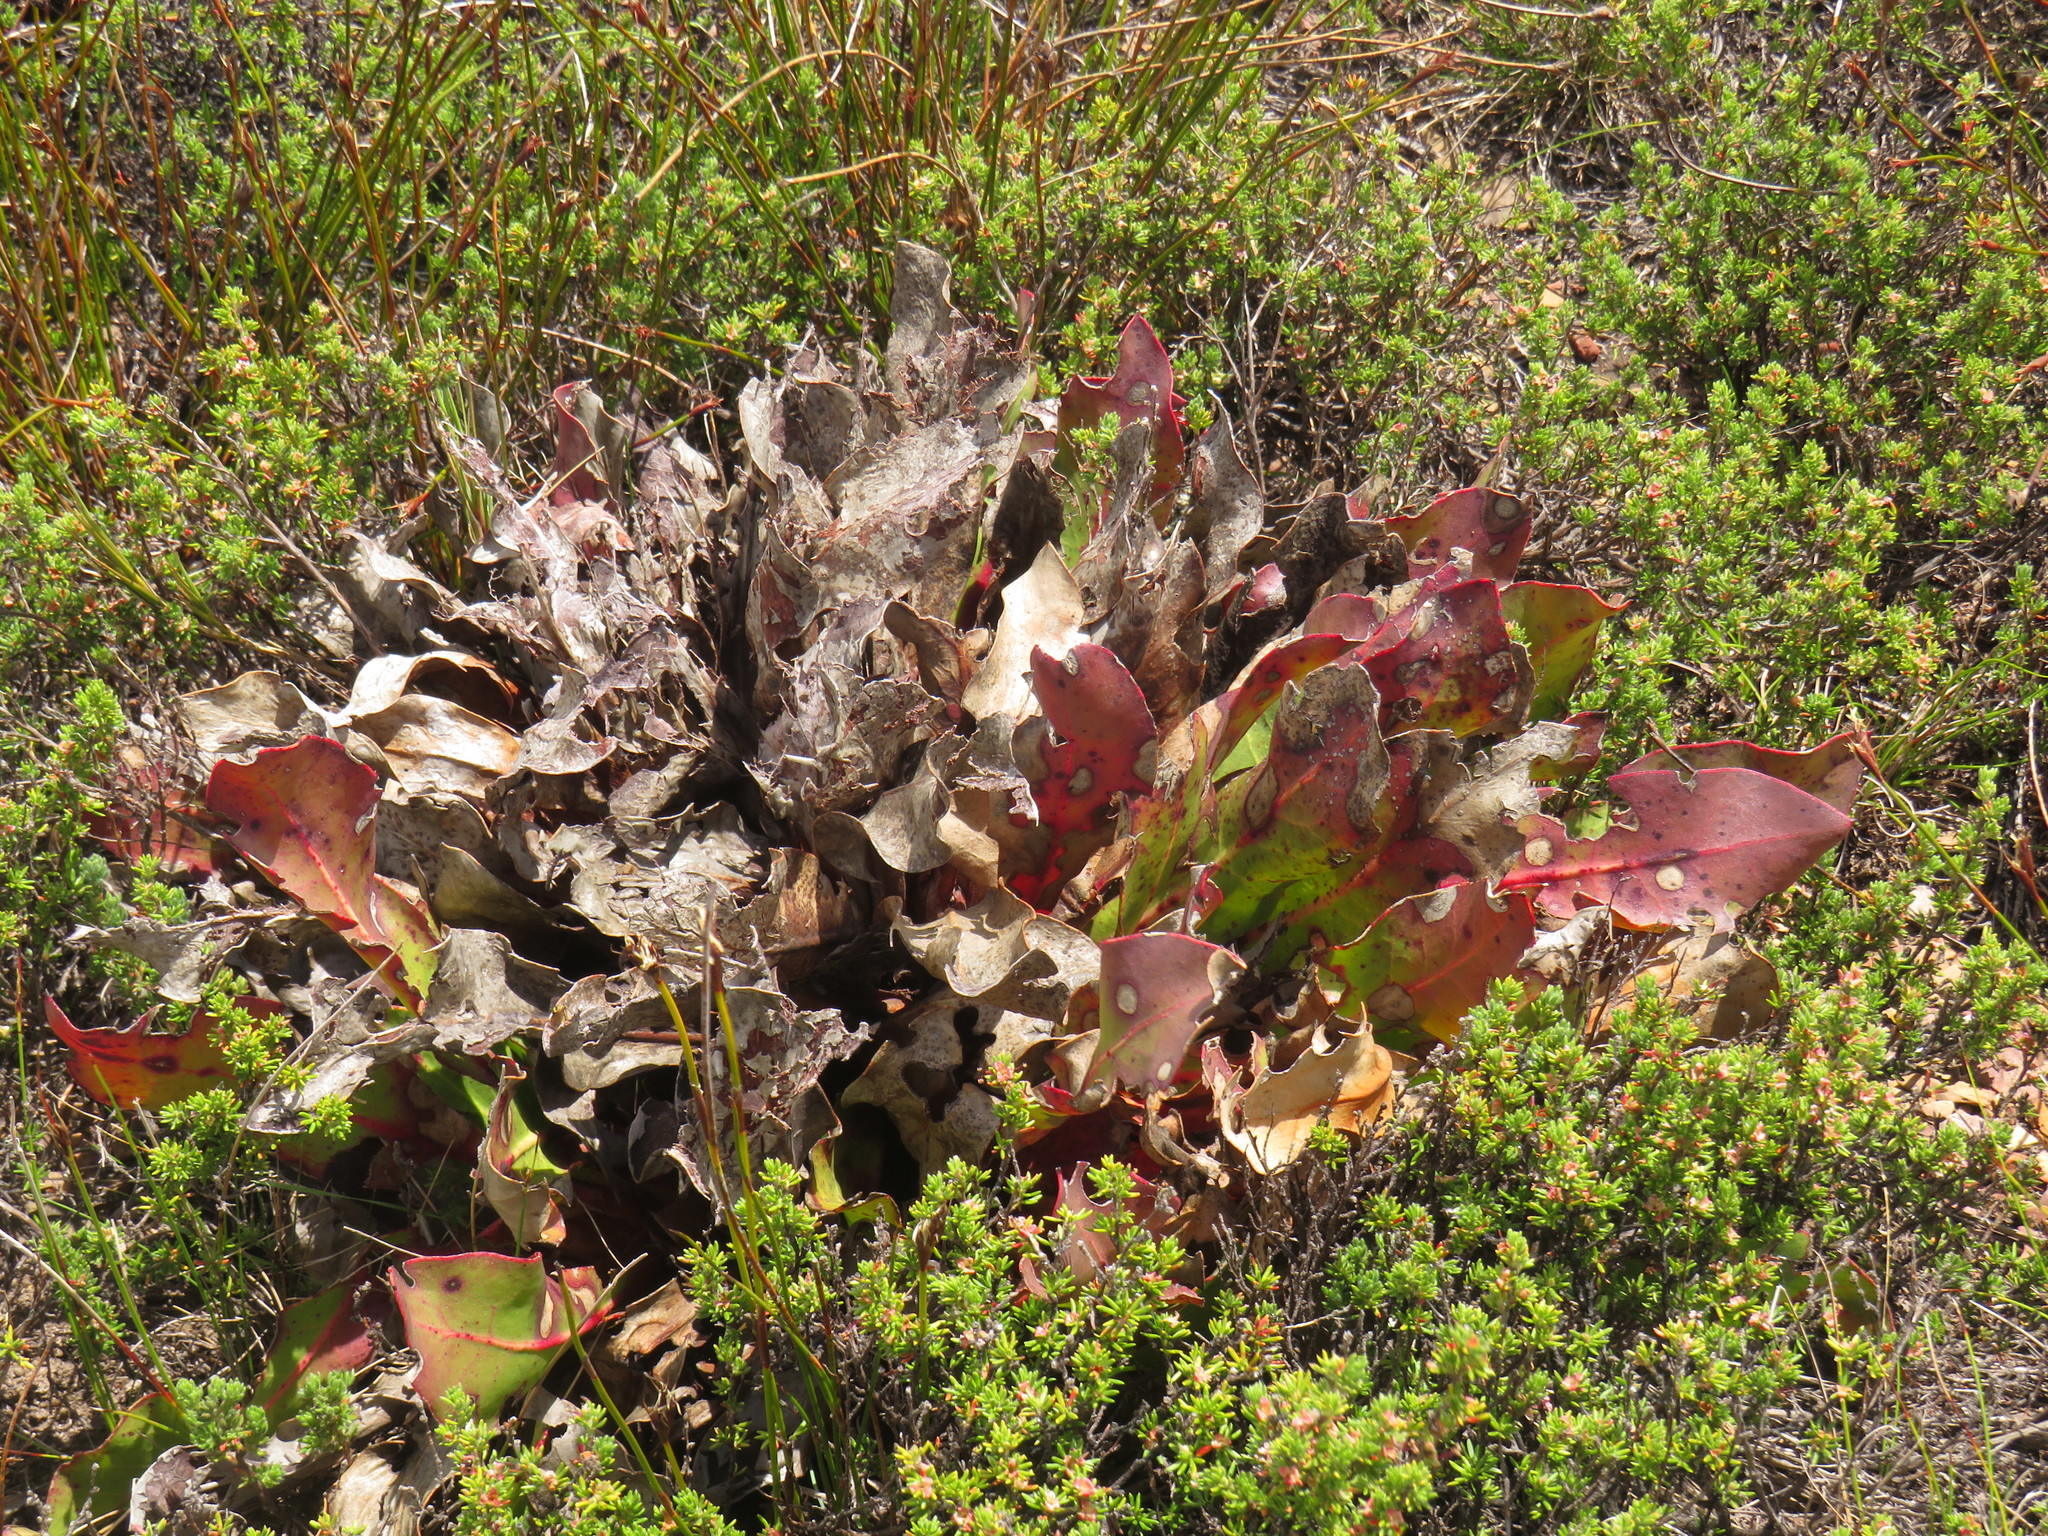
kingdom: Plantae
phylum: Tracheophyta
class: Magnoliopsida
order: Proteales
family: Proteaceae
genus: Protea
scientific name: Protea caespitosa
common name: Bishop sugarbush
